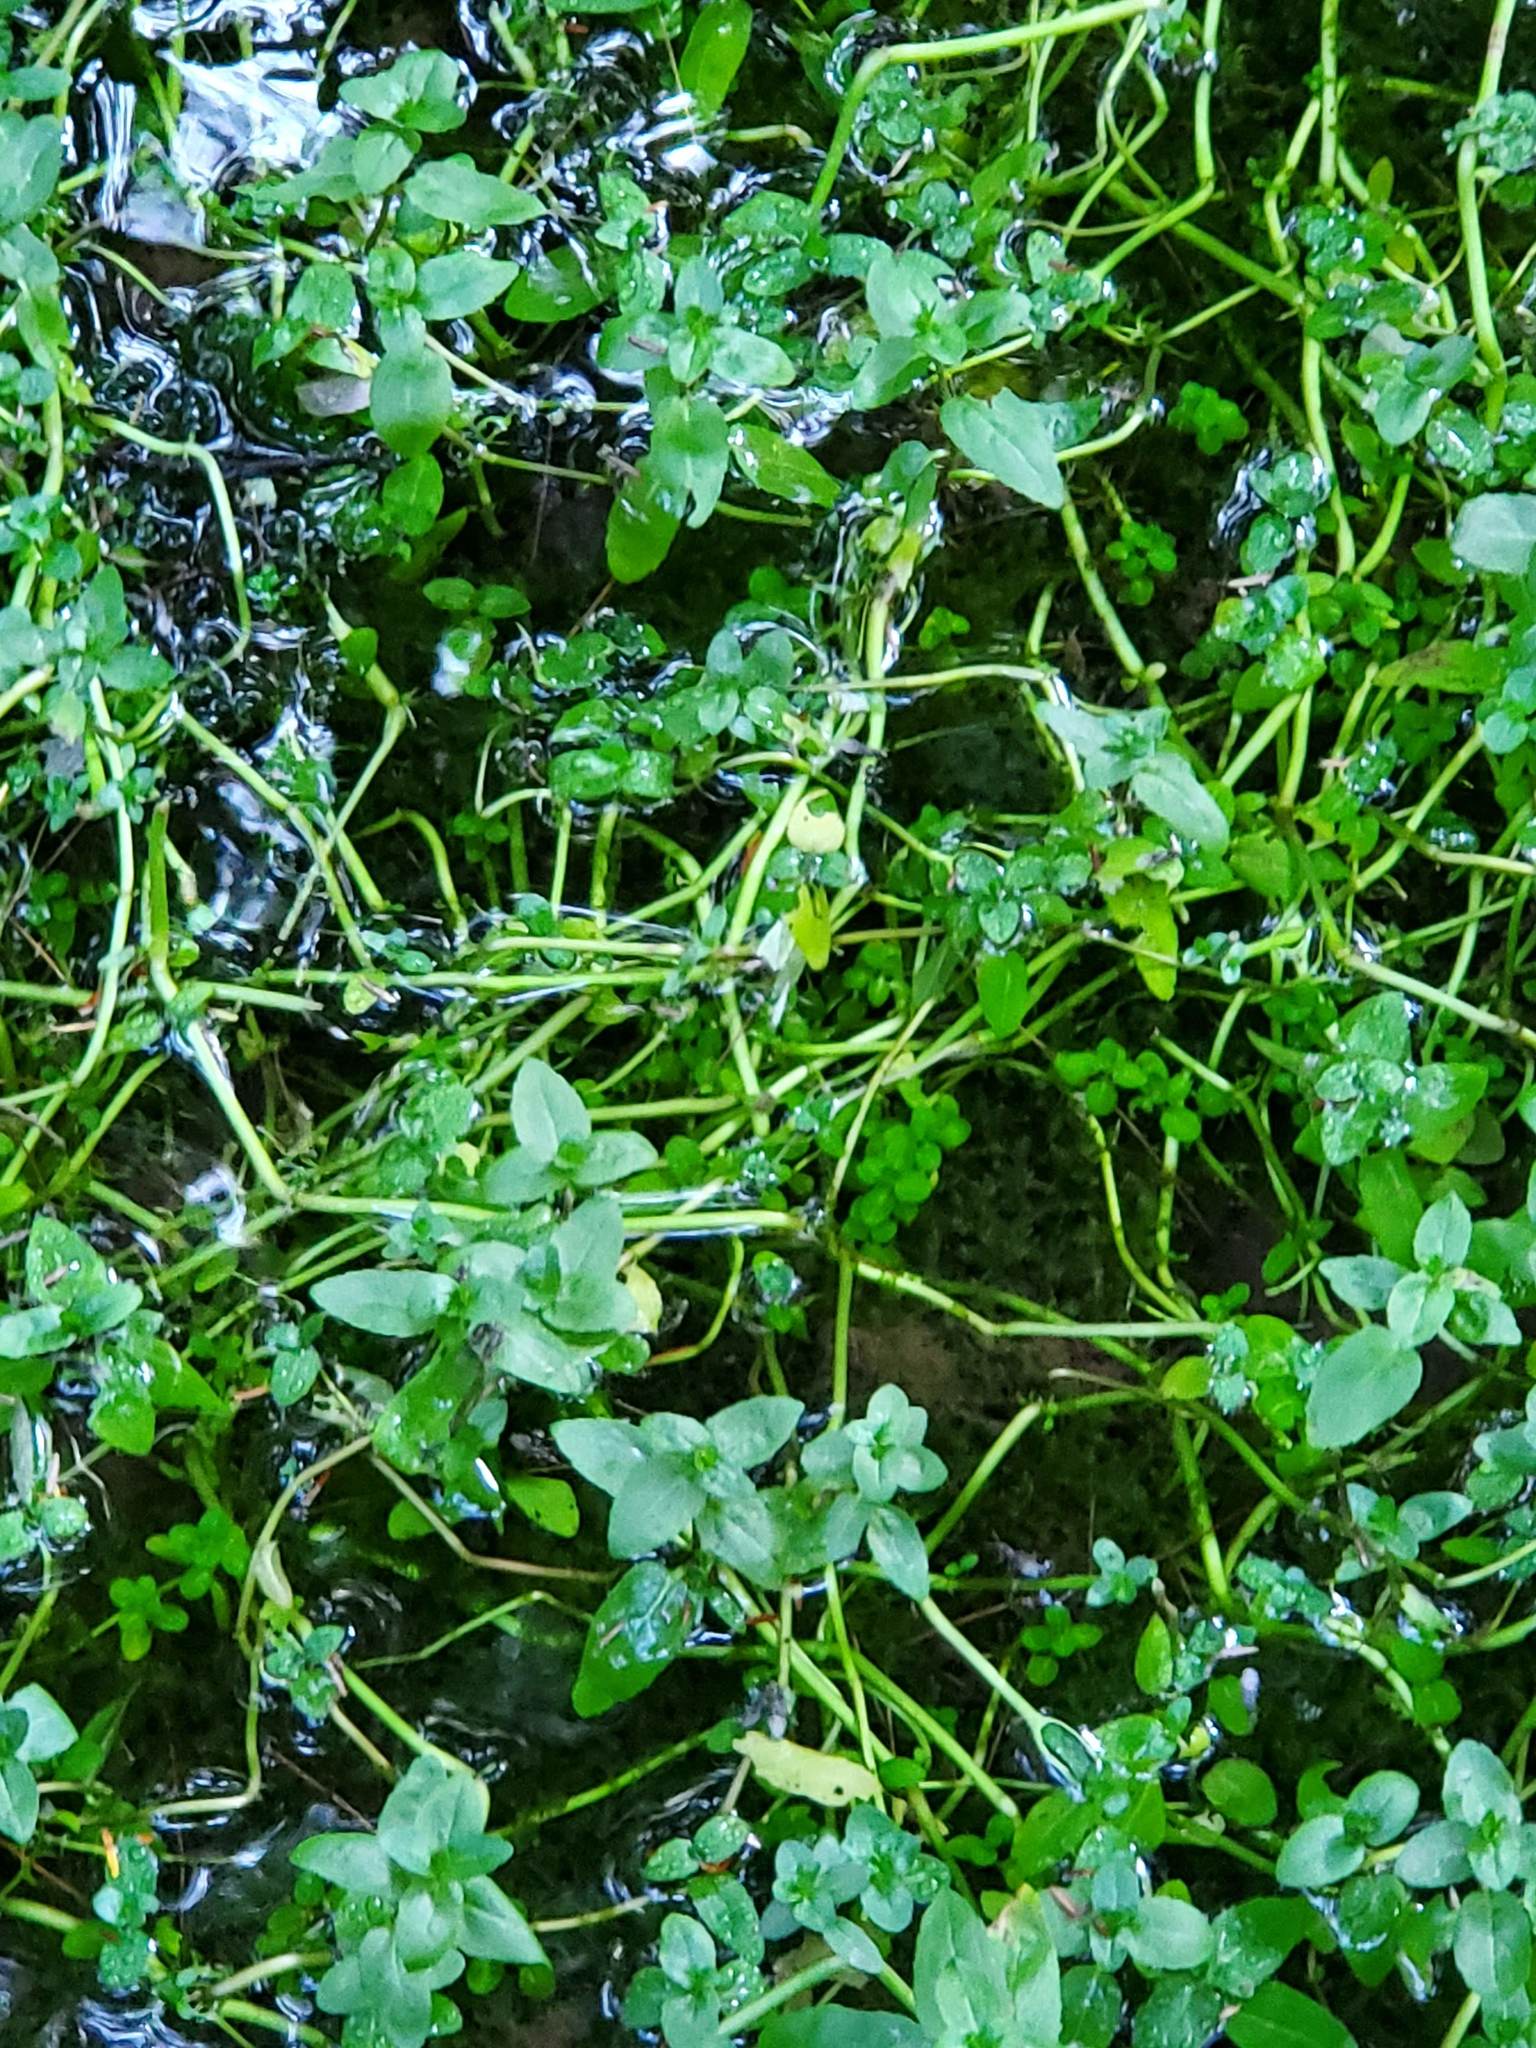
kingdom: Plantae
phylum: Tracheophyta
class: Magnoliopsida
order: Lamiales
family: Plantaginaceae
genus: Veronica
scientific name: Veronica americana
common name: American brooklime
